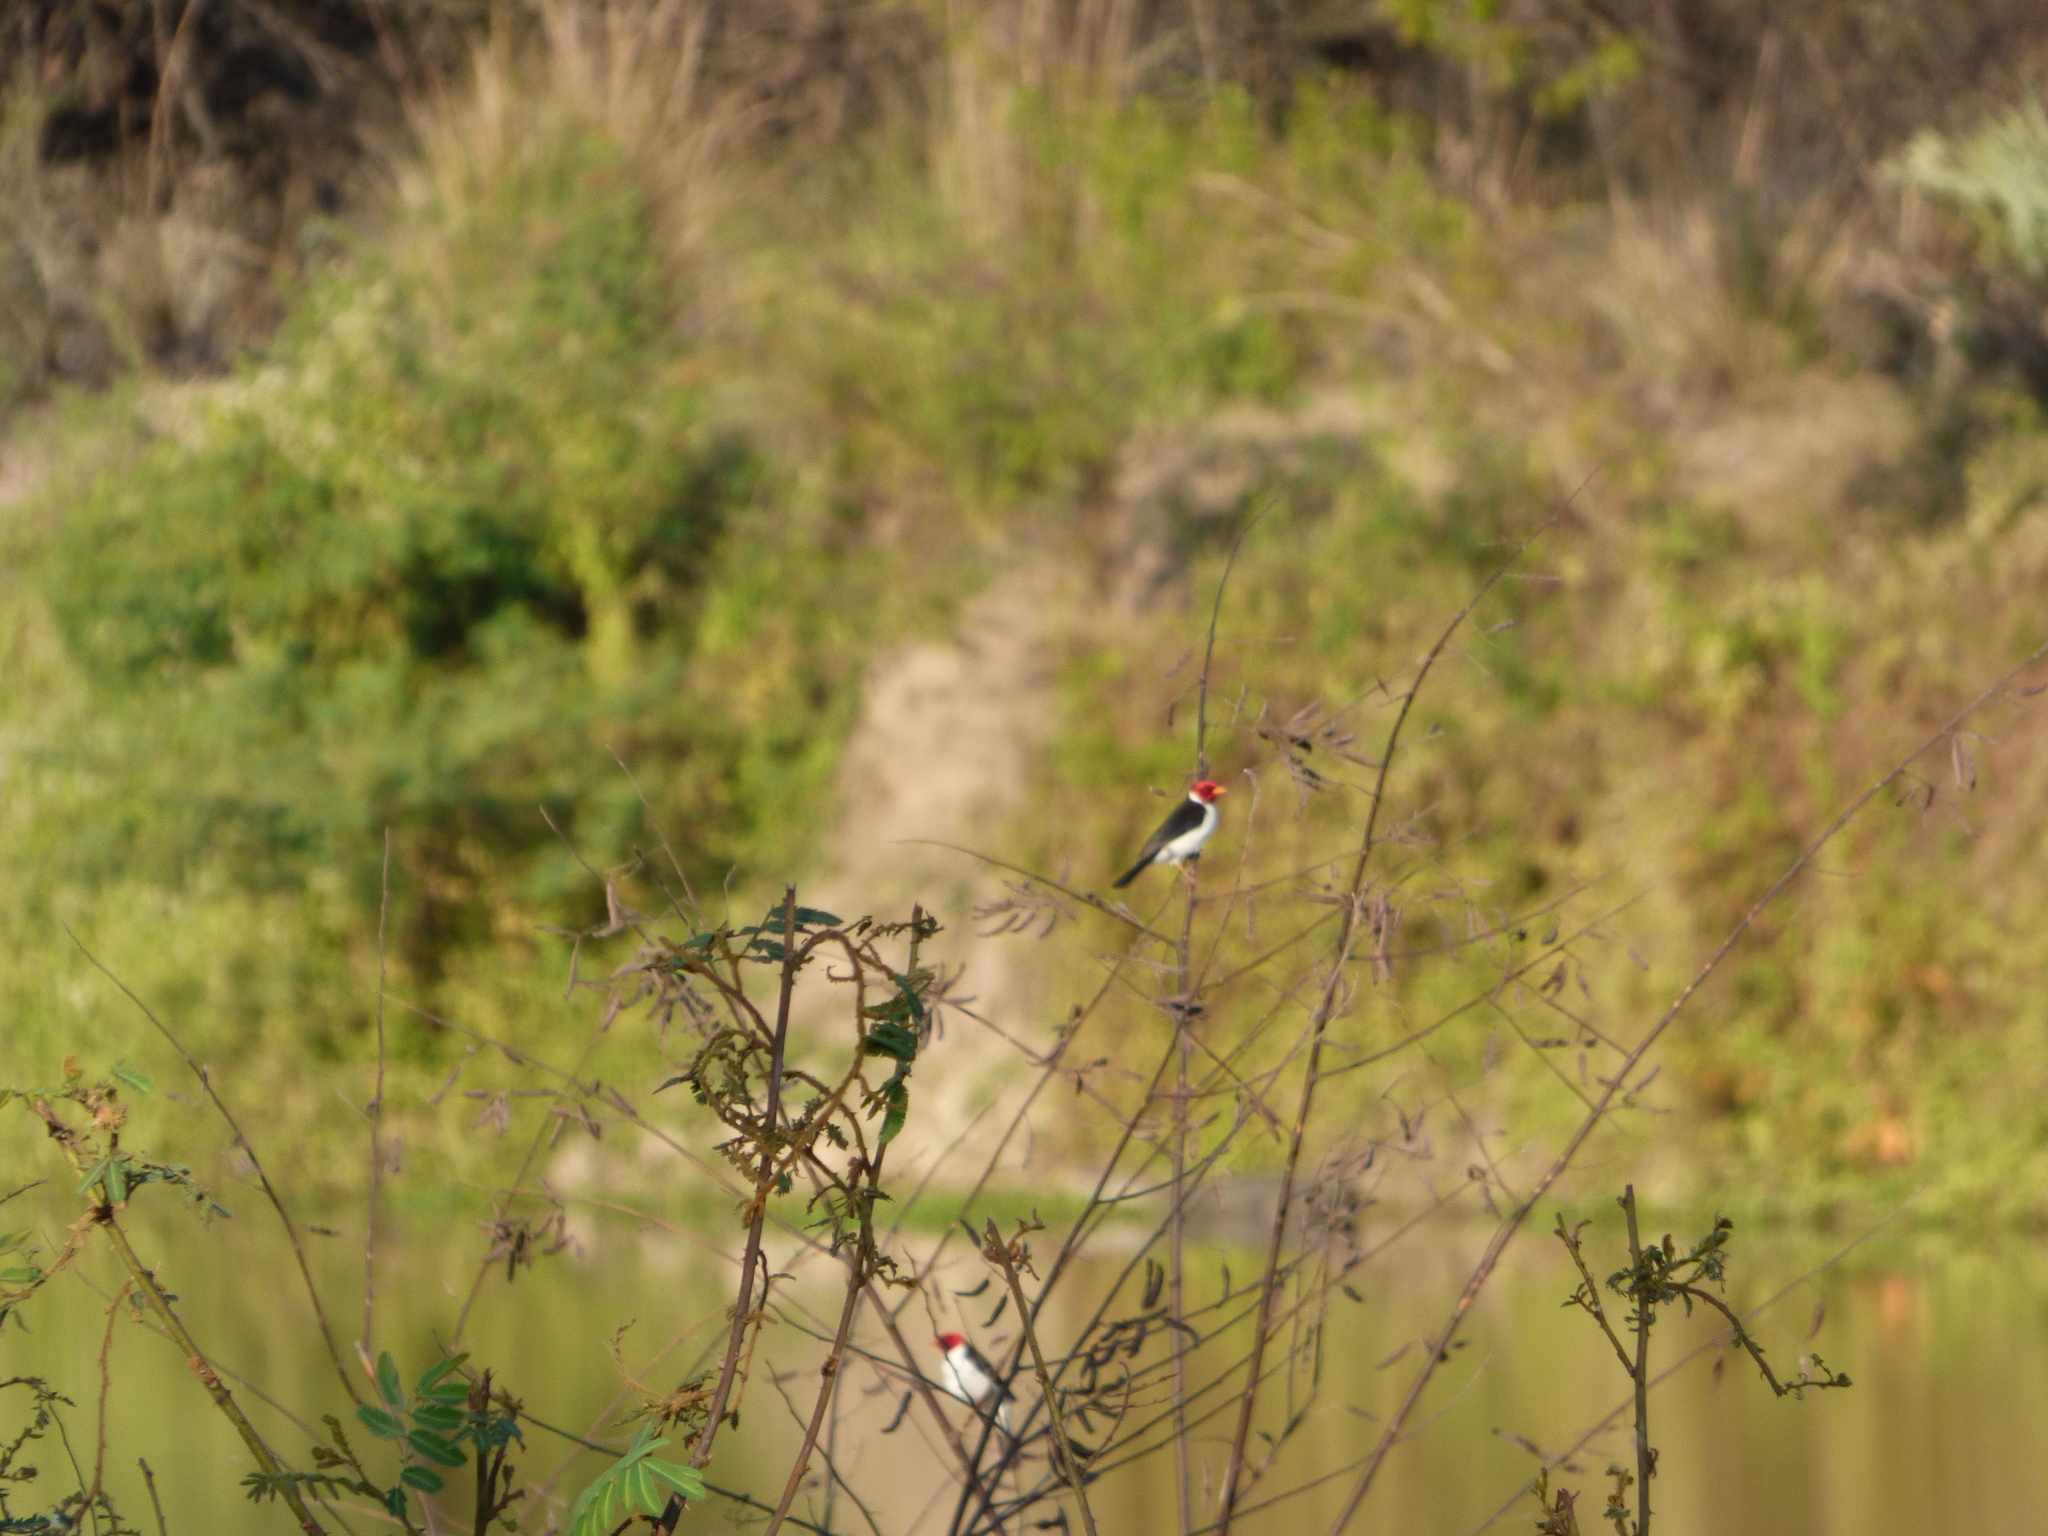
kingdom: Animalia
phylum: Chordata
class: Aves
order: Passeriformes
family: Thraupidae
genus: Paroaria
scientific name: Paroaria capitata
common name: Yellow-billed cardinal
